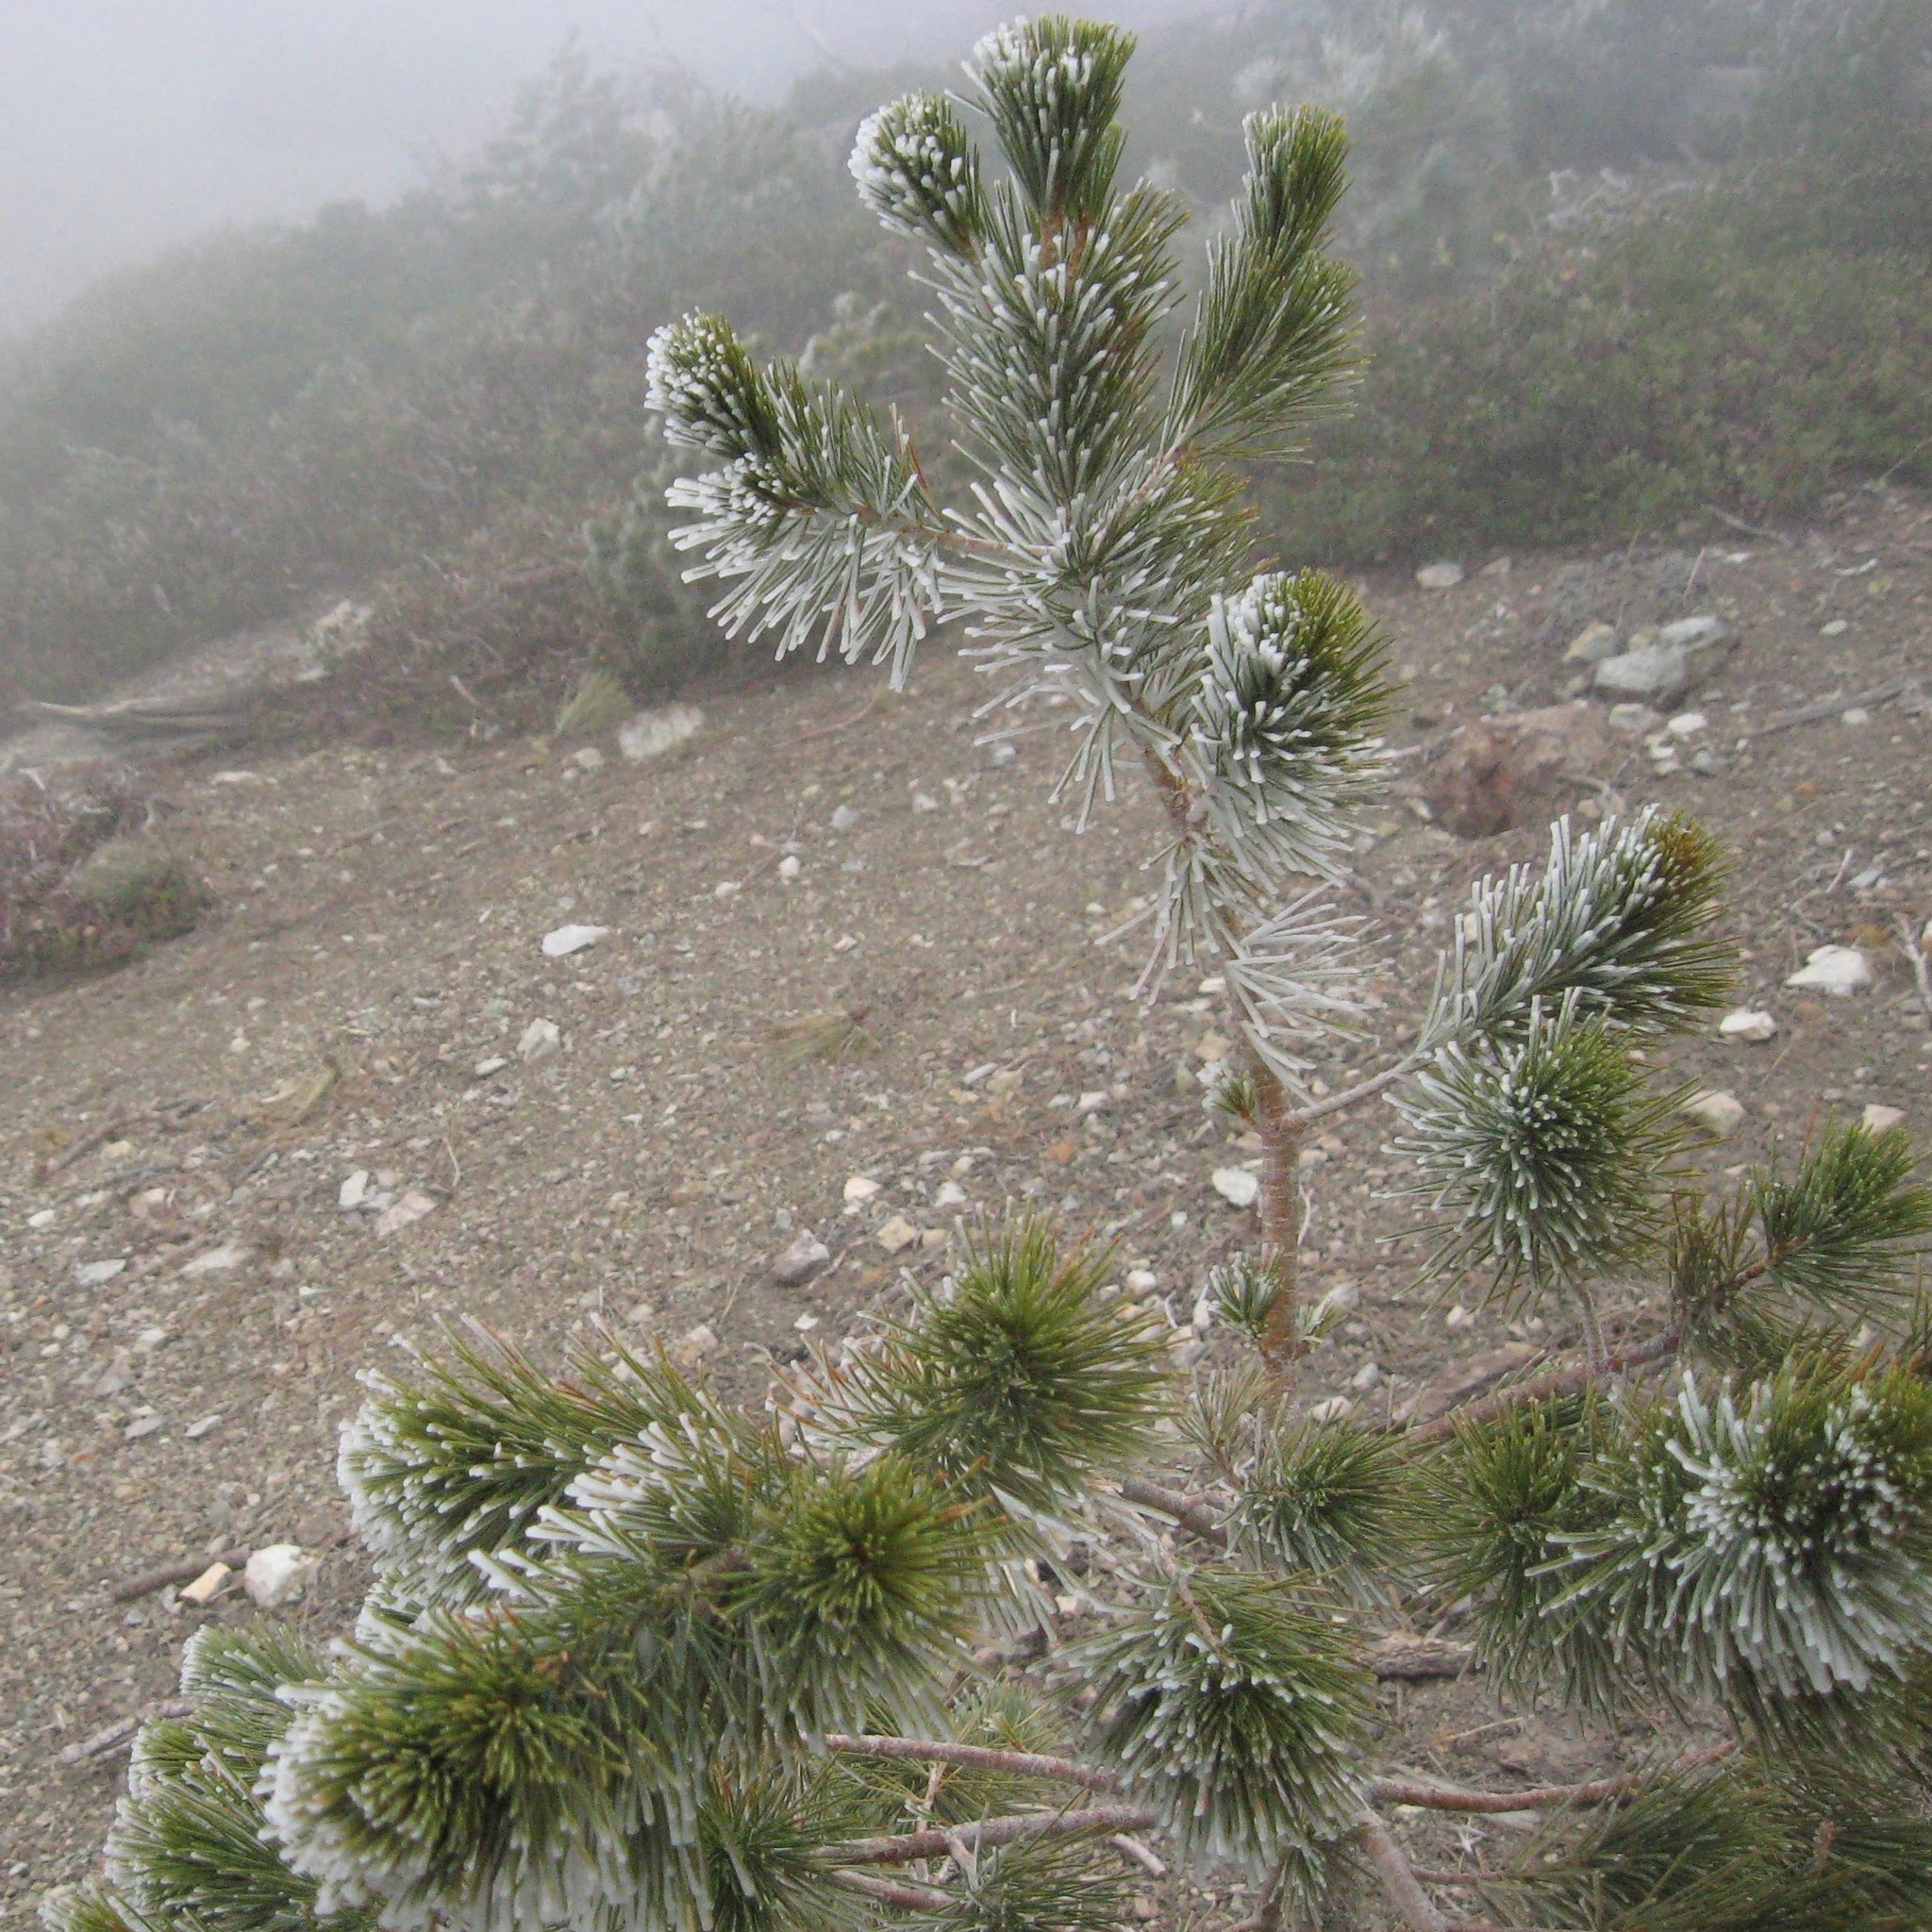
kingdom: Plantae
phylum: Tracheophyta
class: Pinopsida
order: Pinales
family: Pinaceae
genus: Pinus
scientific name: Pinus flexilis
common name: Limber pine
